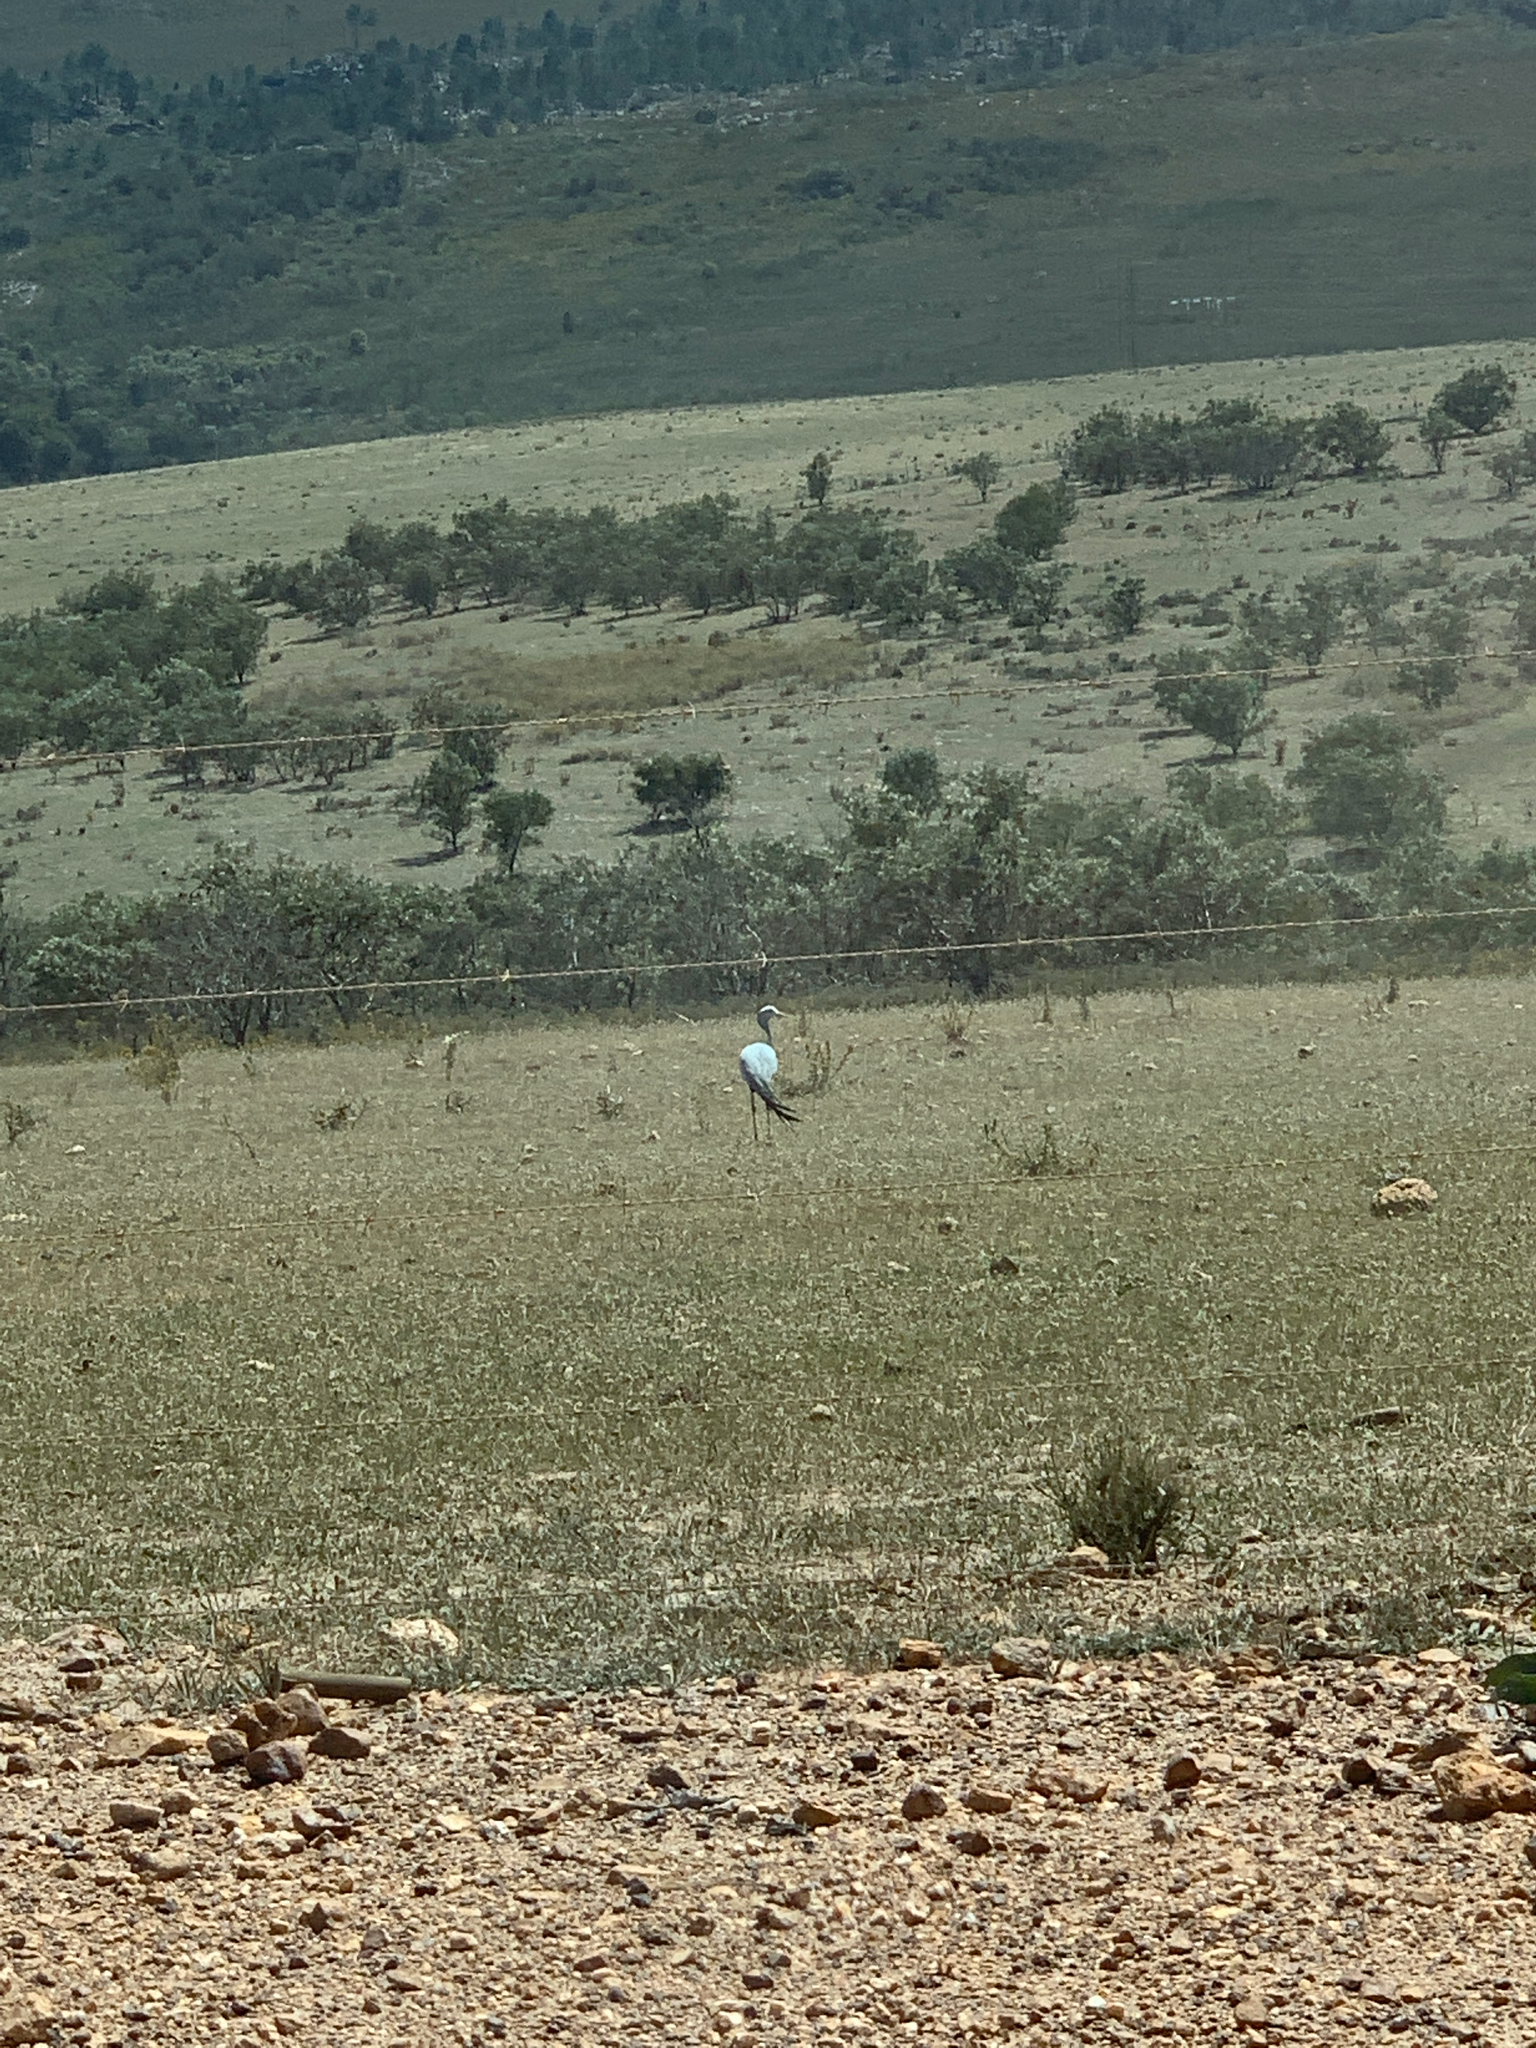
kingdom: Animalia
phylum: Chordata
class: Aves
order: Gruiformes
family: Gruidae
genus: Anthropoides
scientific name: Anthropoides paradiseus
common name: Blue crane
